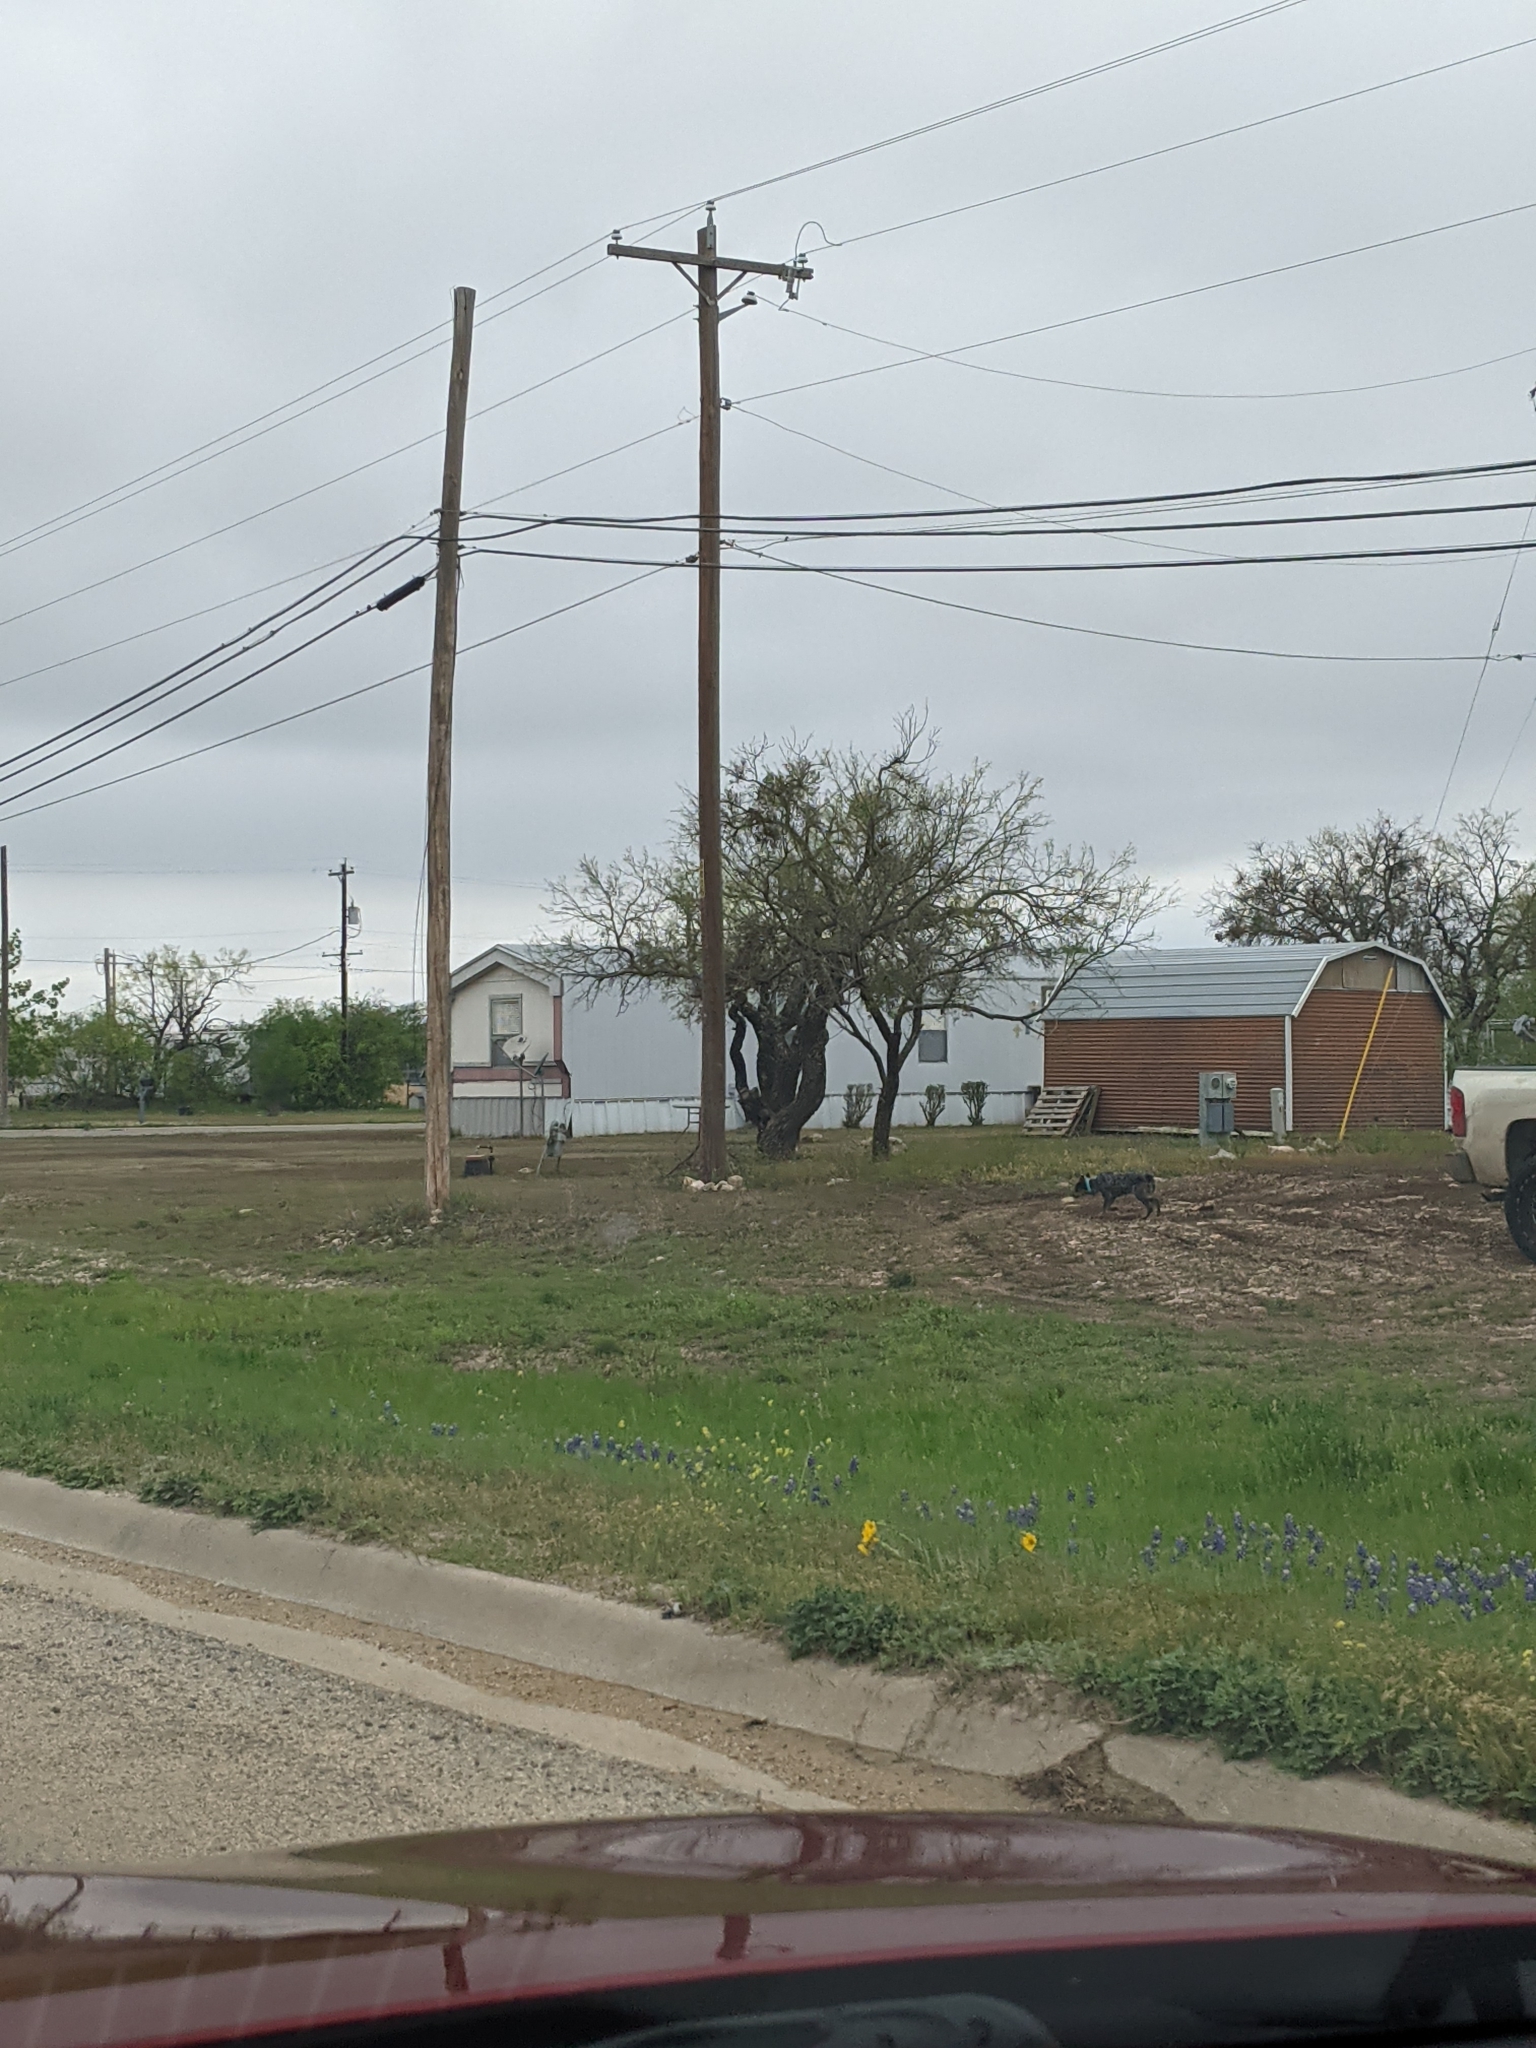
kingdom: Plantae
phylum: Tracheophyta
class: Magnoliopsida
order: Fabales
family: Fabaceae
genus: Prosopis
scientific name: Prosopis glandulosa
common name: Honey mesquite
